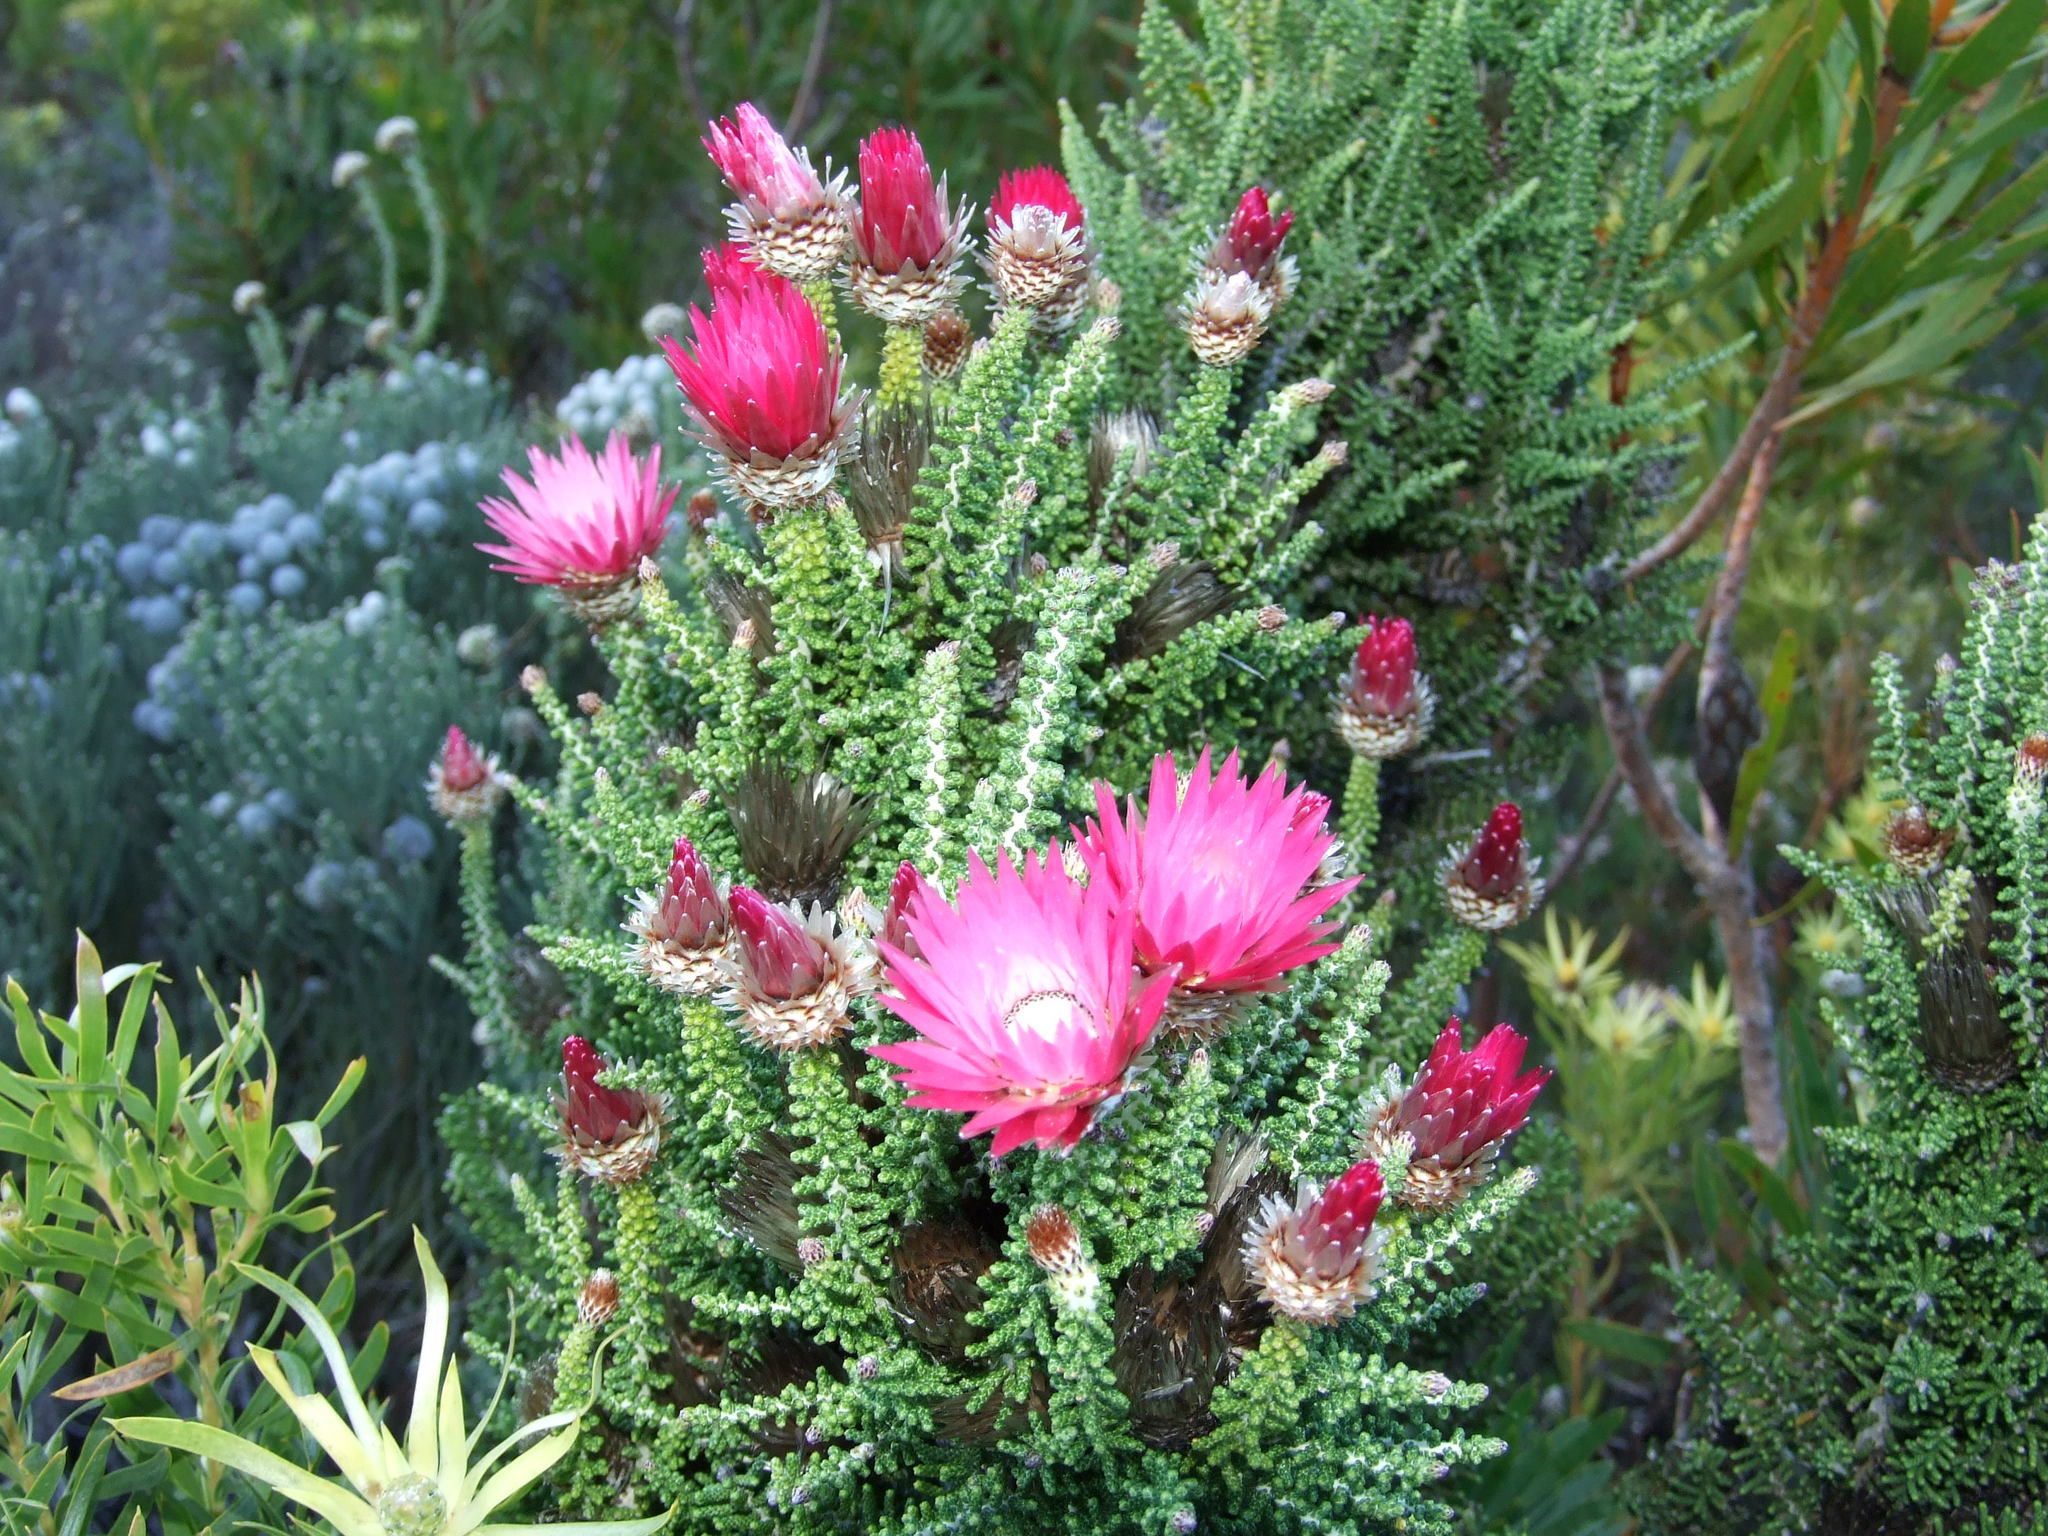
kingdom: Plantae
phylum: Tracheophyta
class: Magnoliopsida
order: Asterales
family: Asteraceae
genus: Phaenocoma
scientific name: Phaenocoma prolifera
